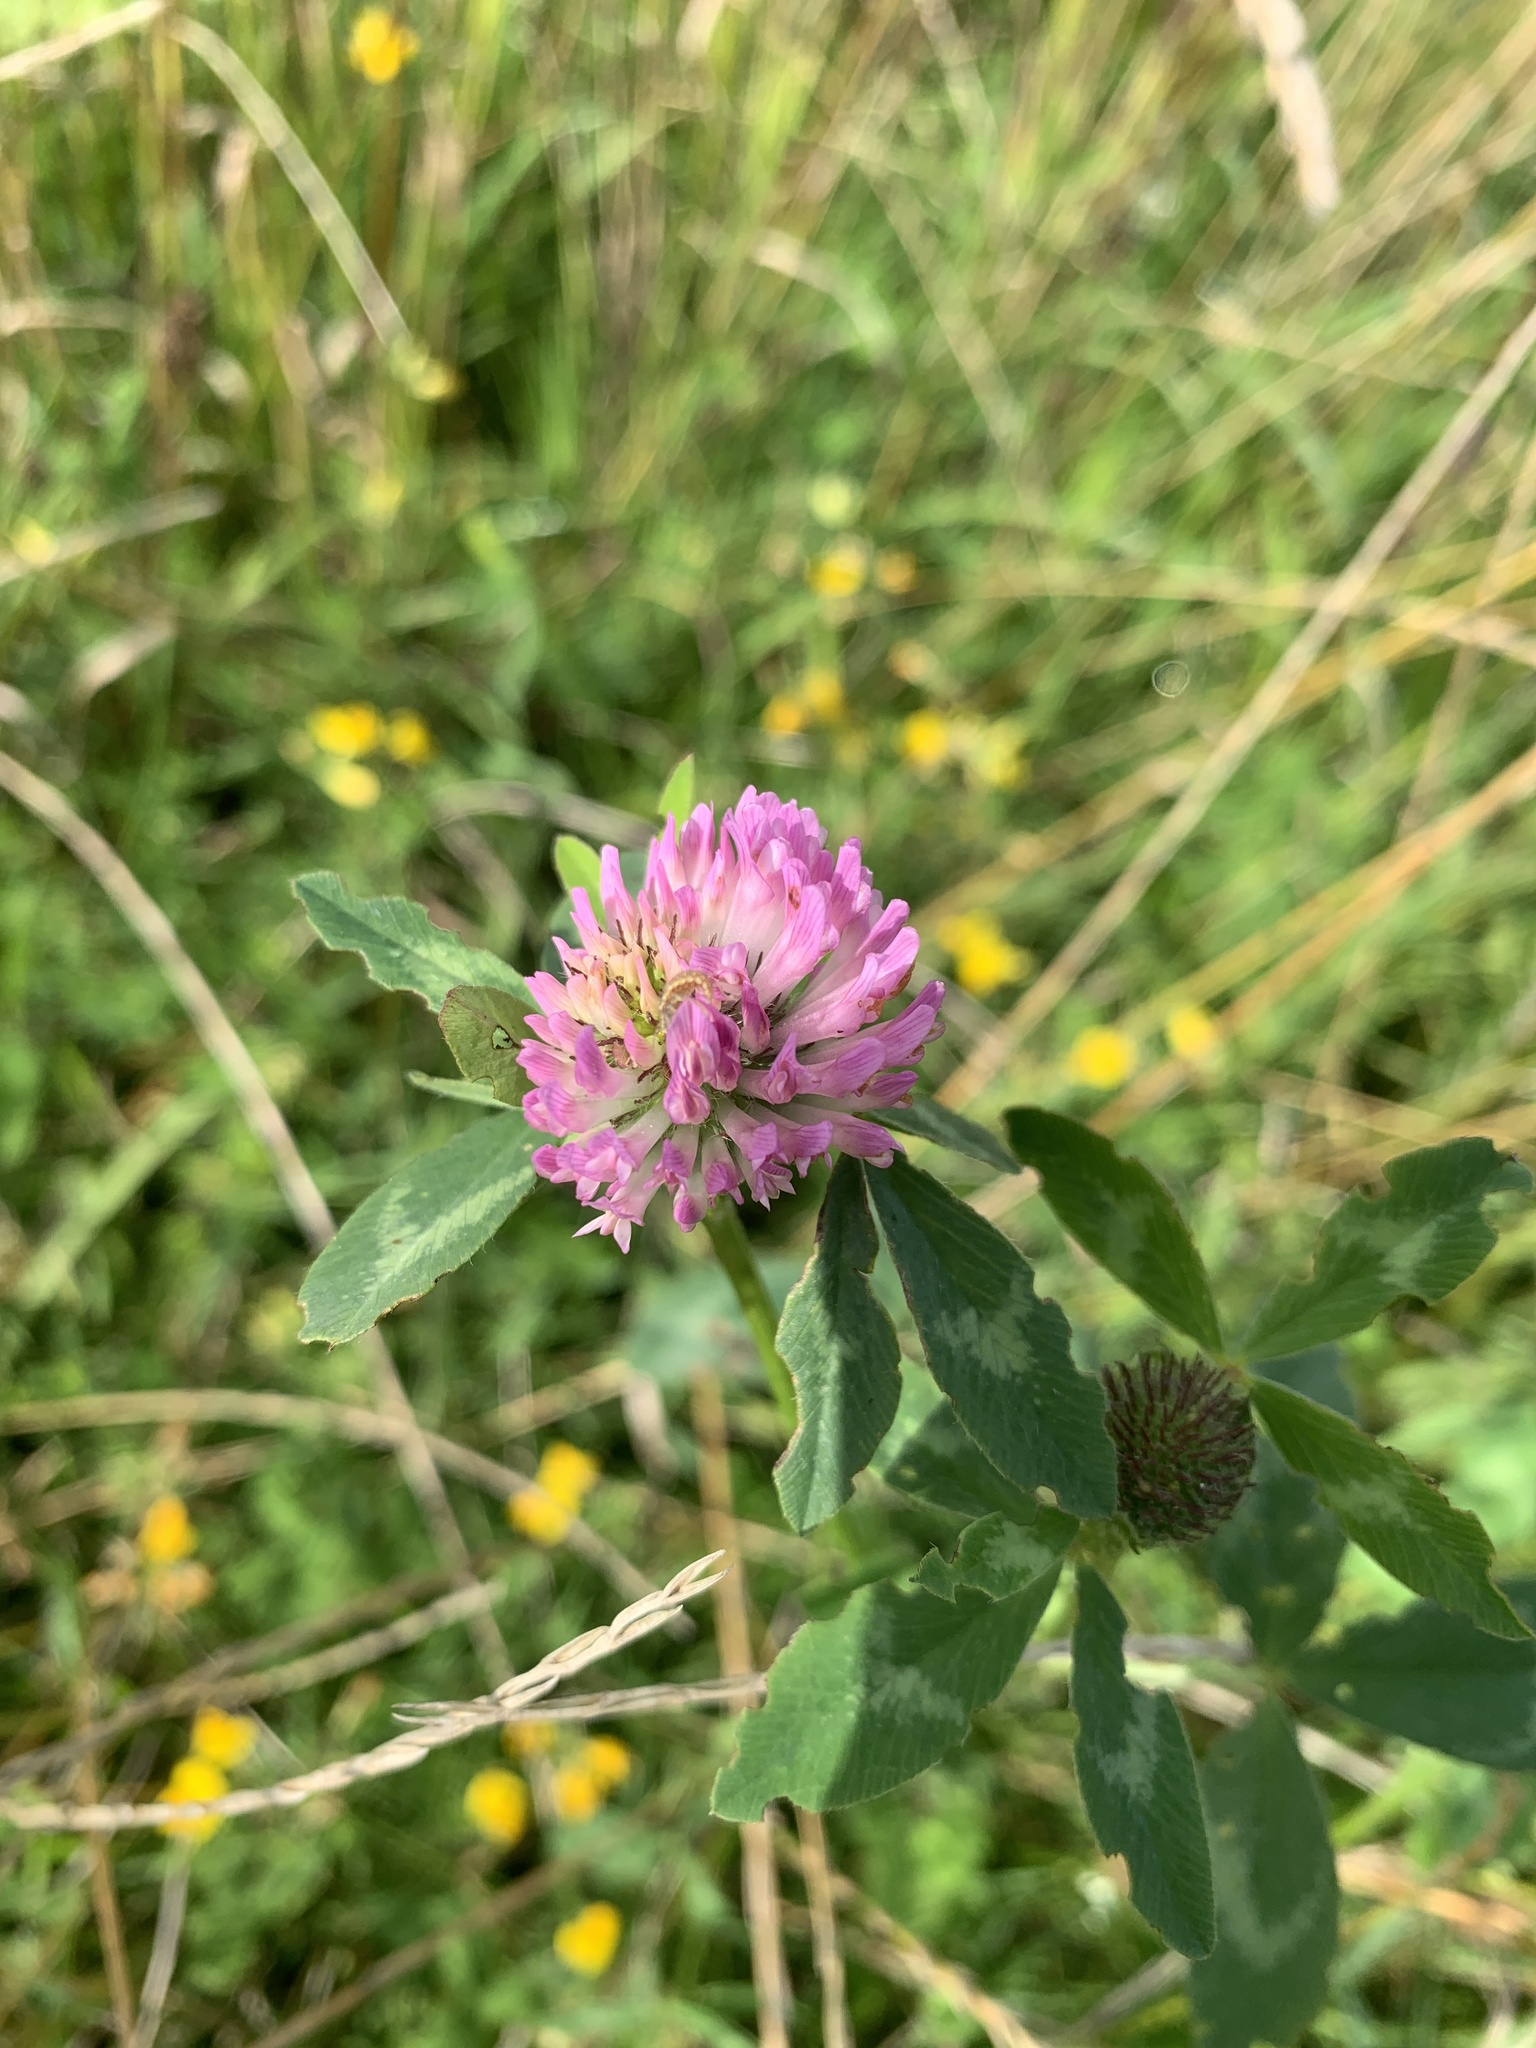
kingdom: Plantae
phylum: Tracheophyta
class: Magnoliopsida
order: Fabales
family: Fabaceae
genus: Trifolium
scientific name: Trifolium pratense
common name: Red clover
